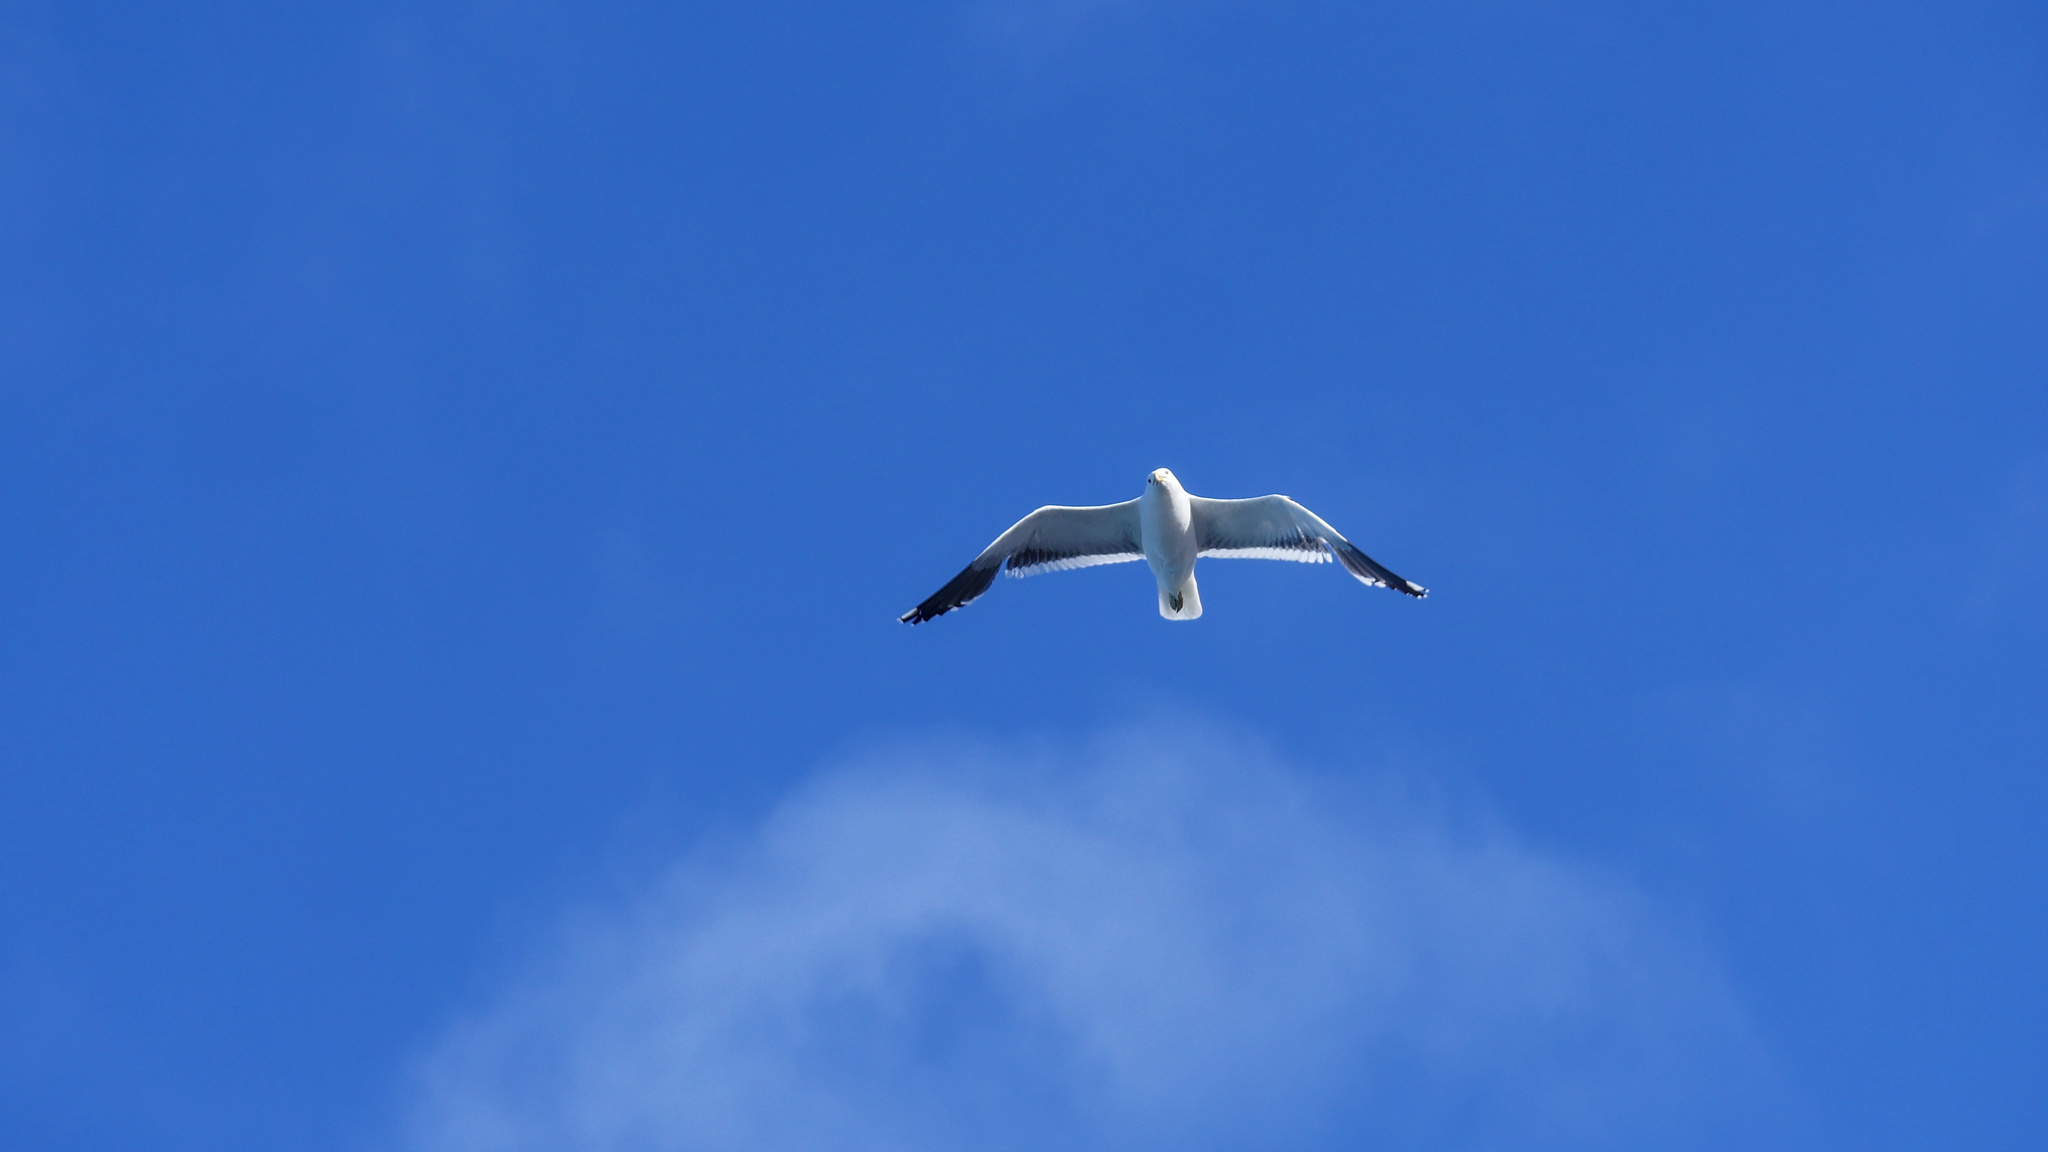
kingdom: Animalia
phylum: Chordata
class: Aves
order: Charadriiformes
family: Laridae
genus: Larus
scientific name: Larus dominicanus
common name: Kelp gull
